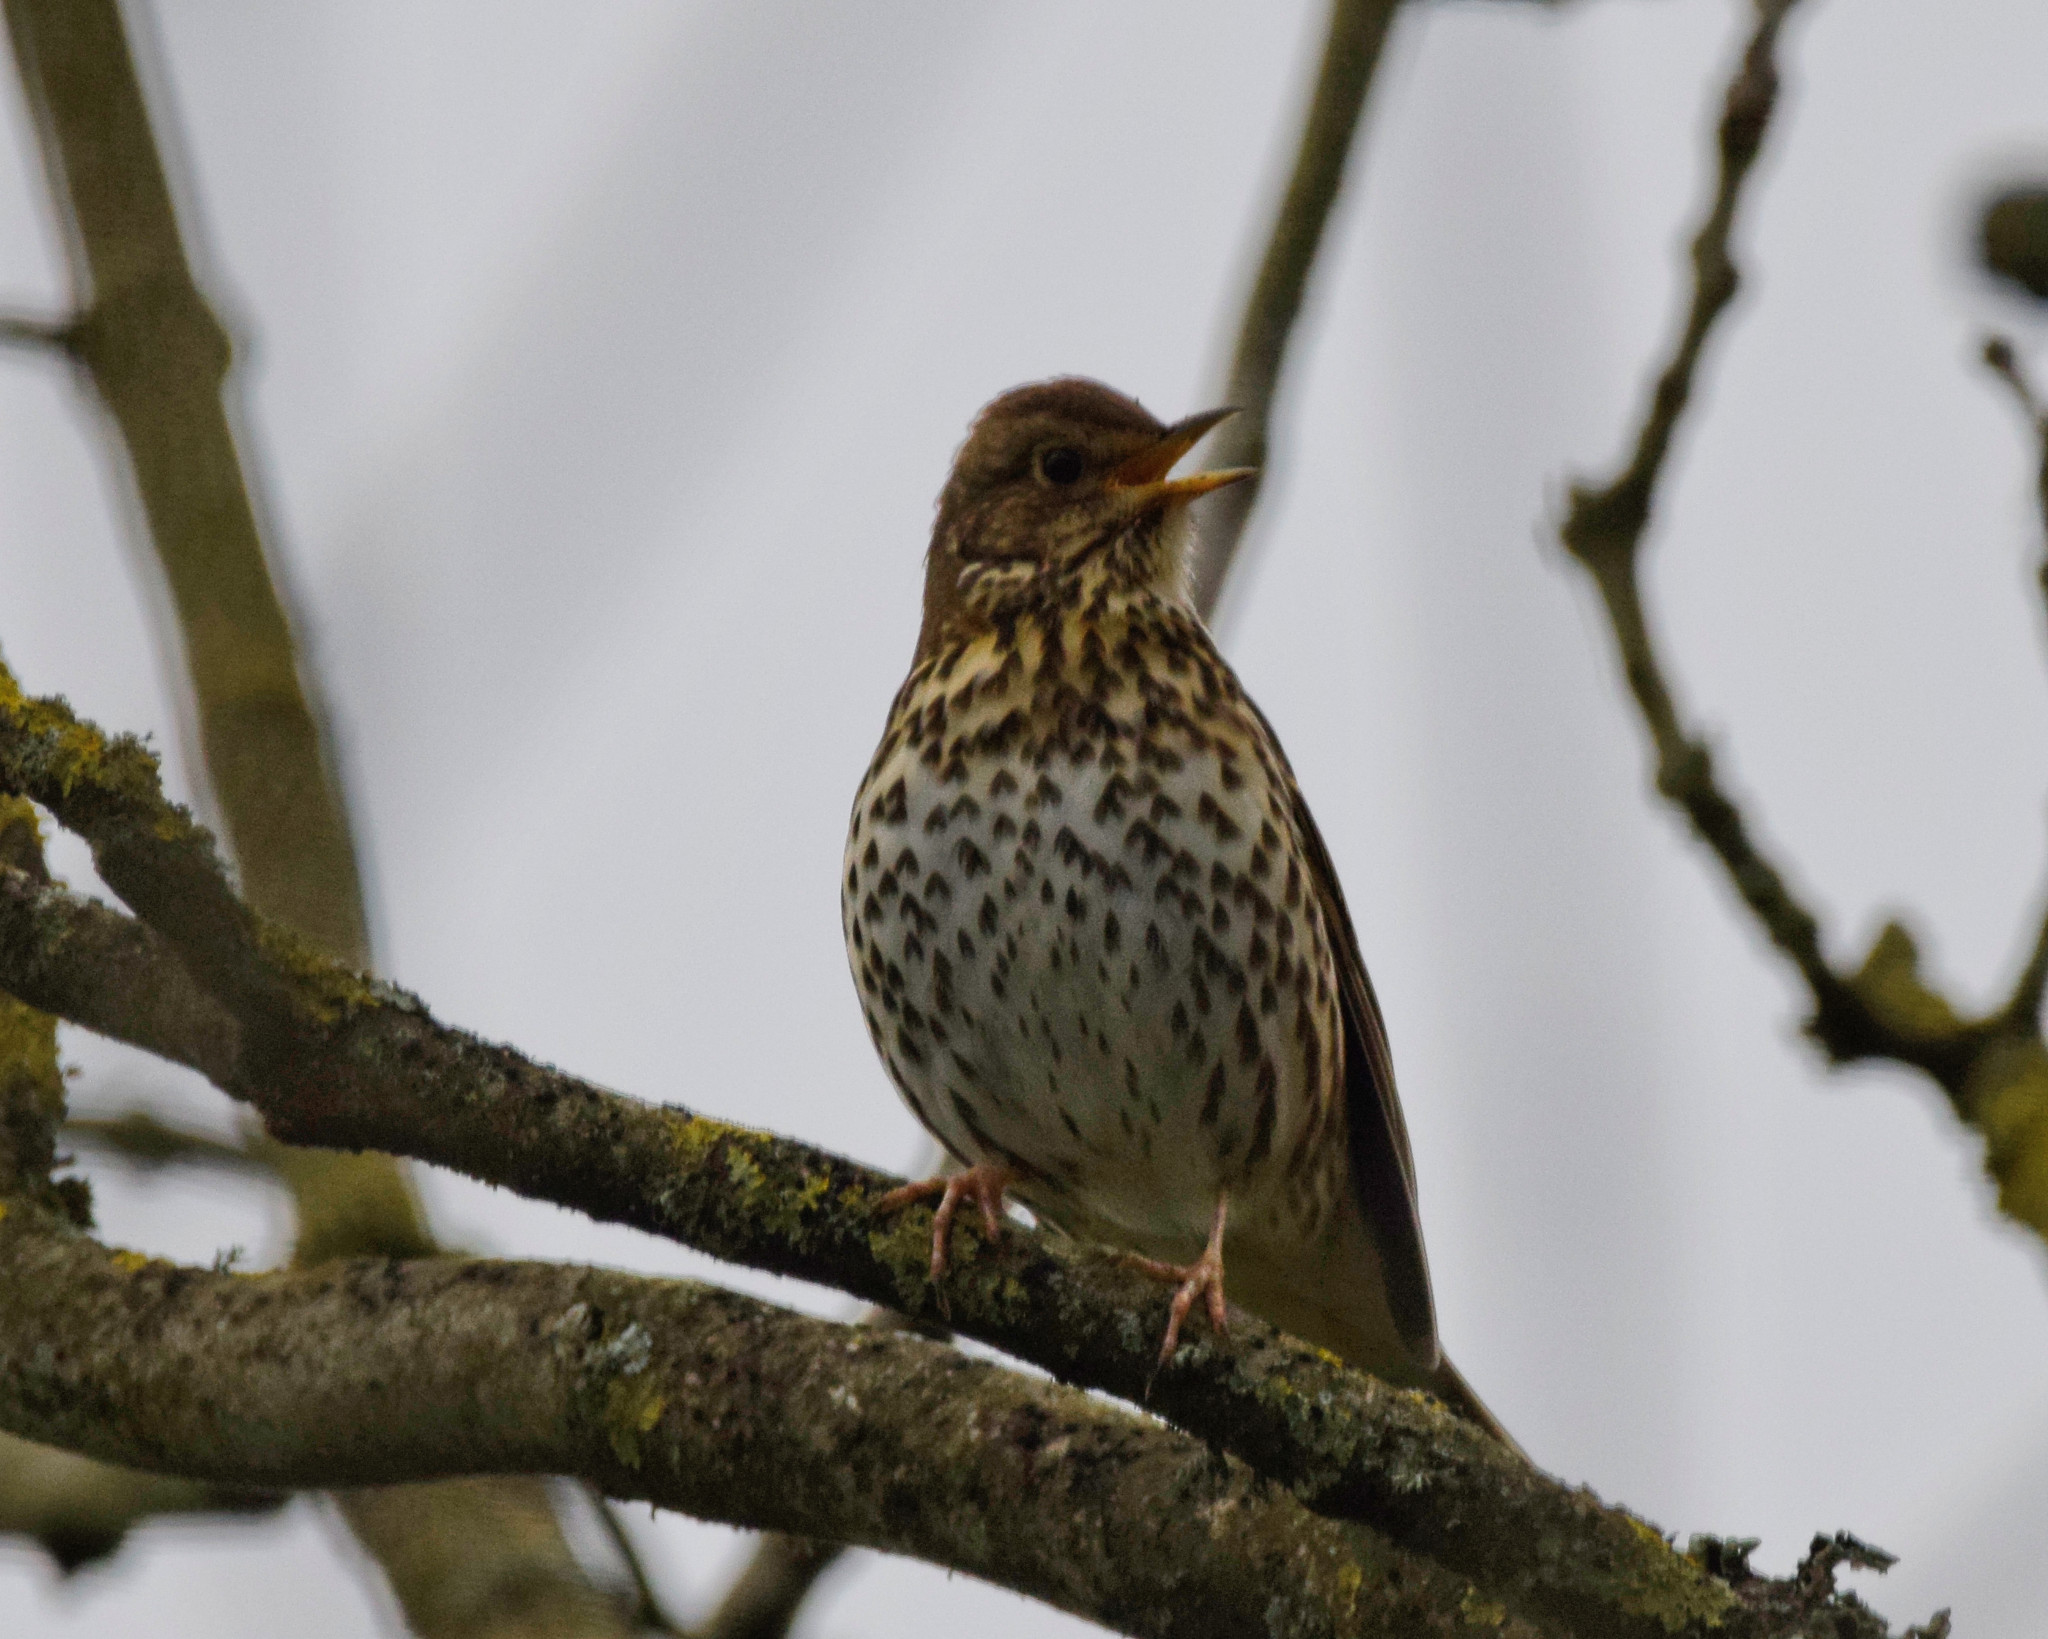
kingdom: Animalia
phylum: Chordata
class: Aves
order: Passeriformes
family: Turdidae
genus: Turdus
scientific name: Turdus philomelos
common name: Song thrush
